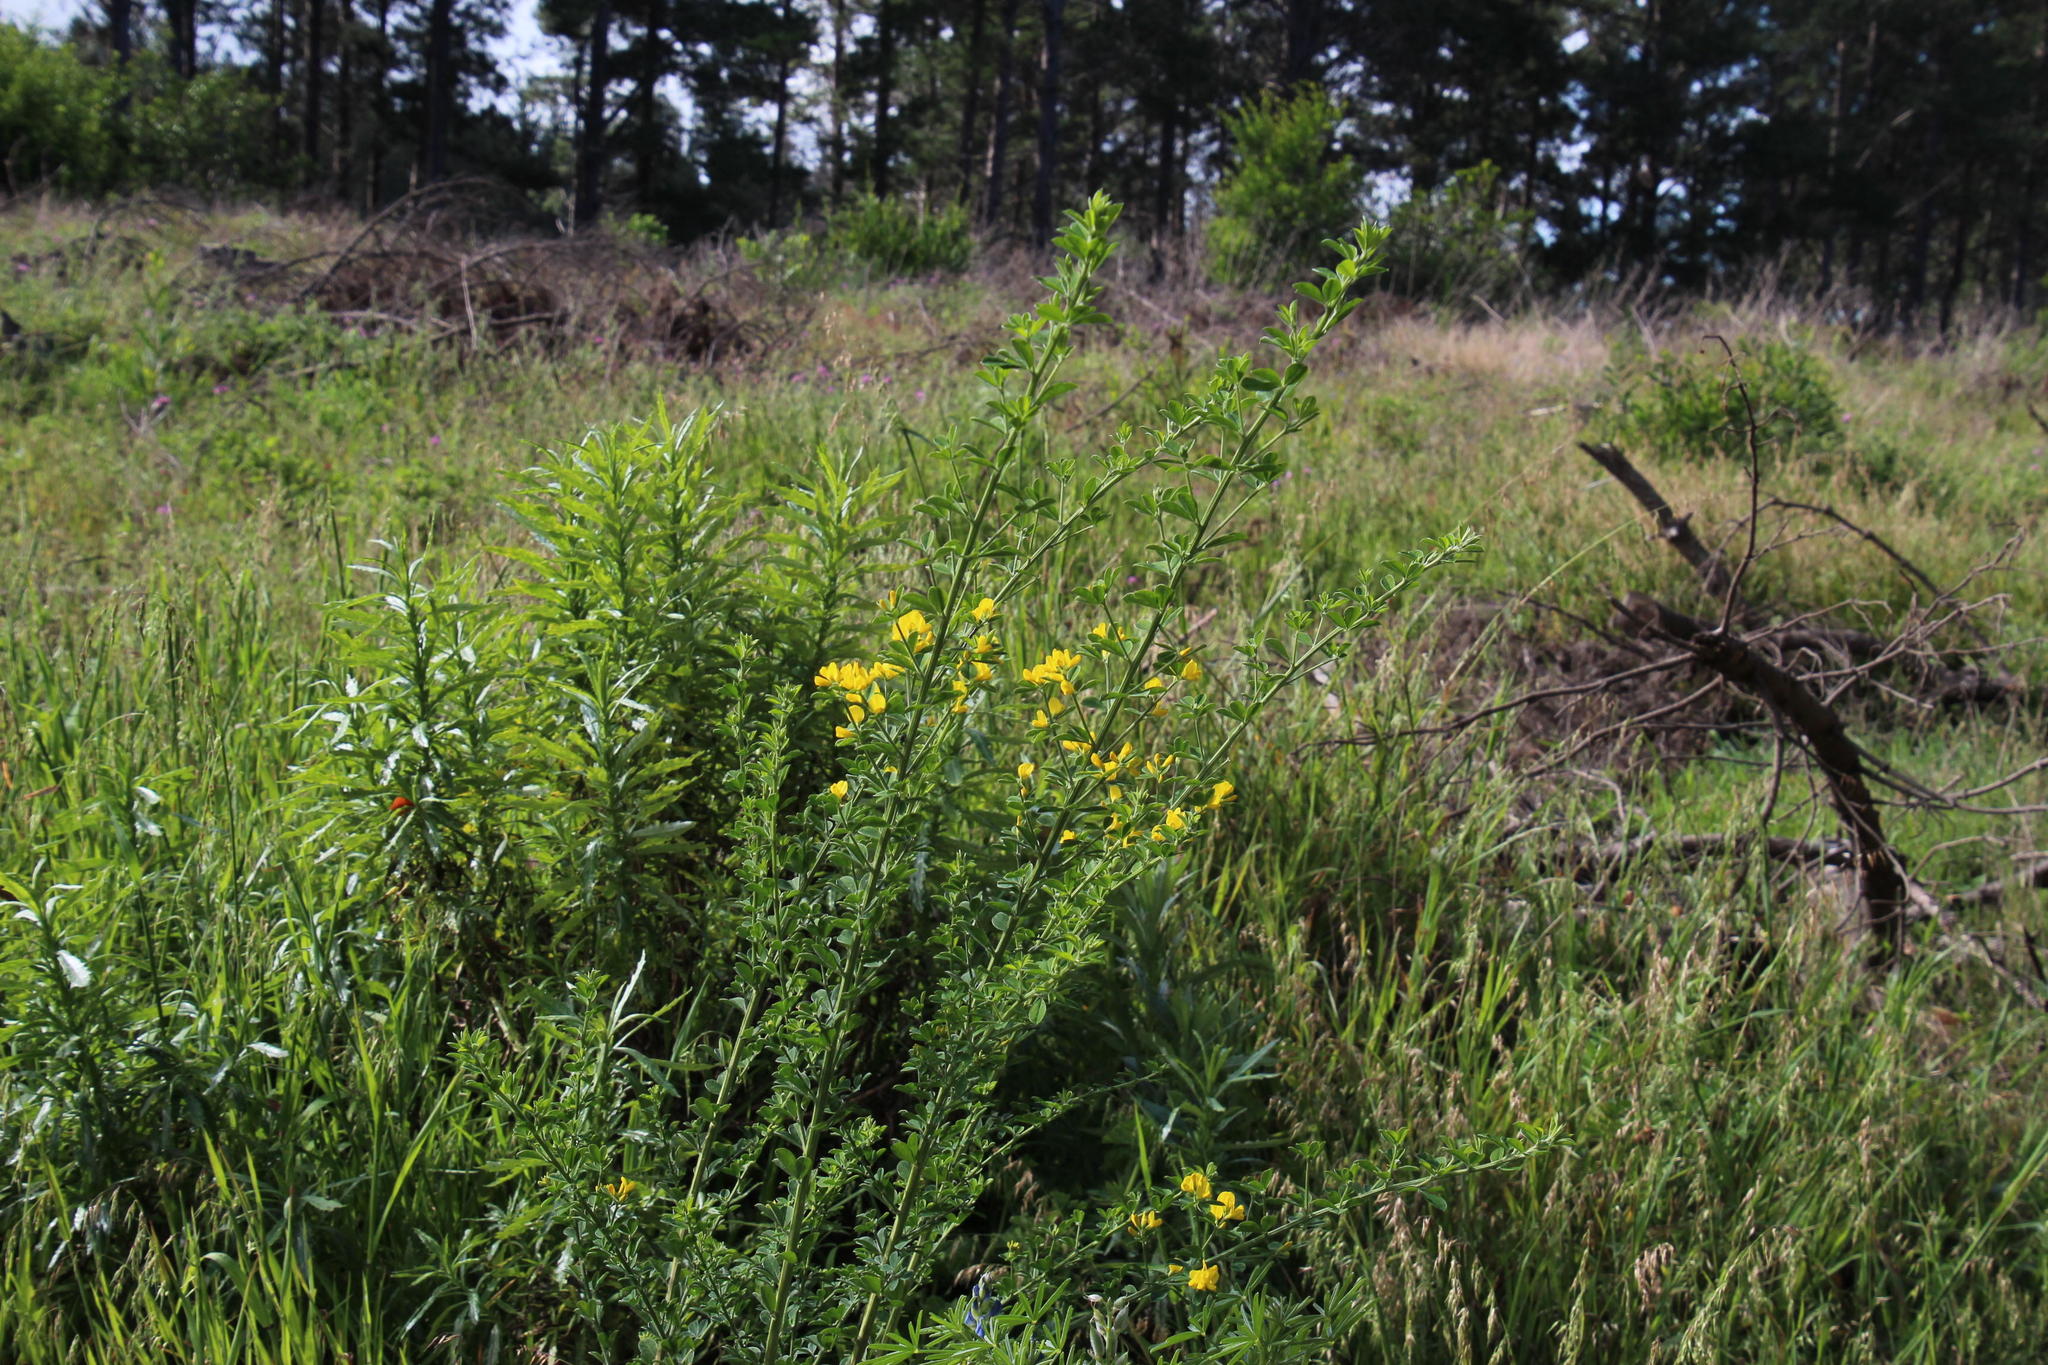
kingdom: Plantae
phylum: Tracheophyta
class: Magnoliopsida
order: Fabales
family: Fabaceae
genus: Genista
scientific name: Genista monspessulana
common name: Montpellier broom
